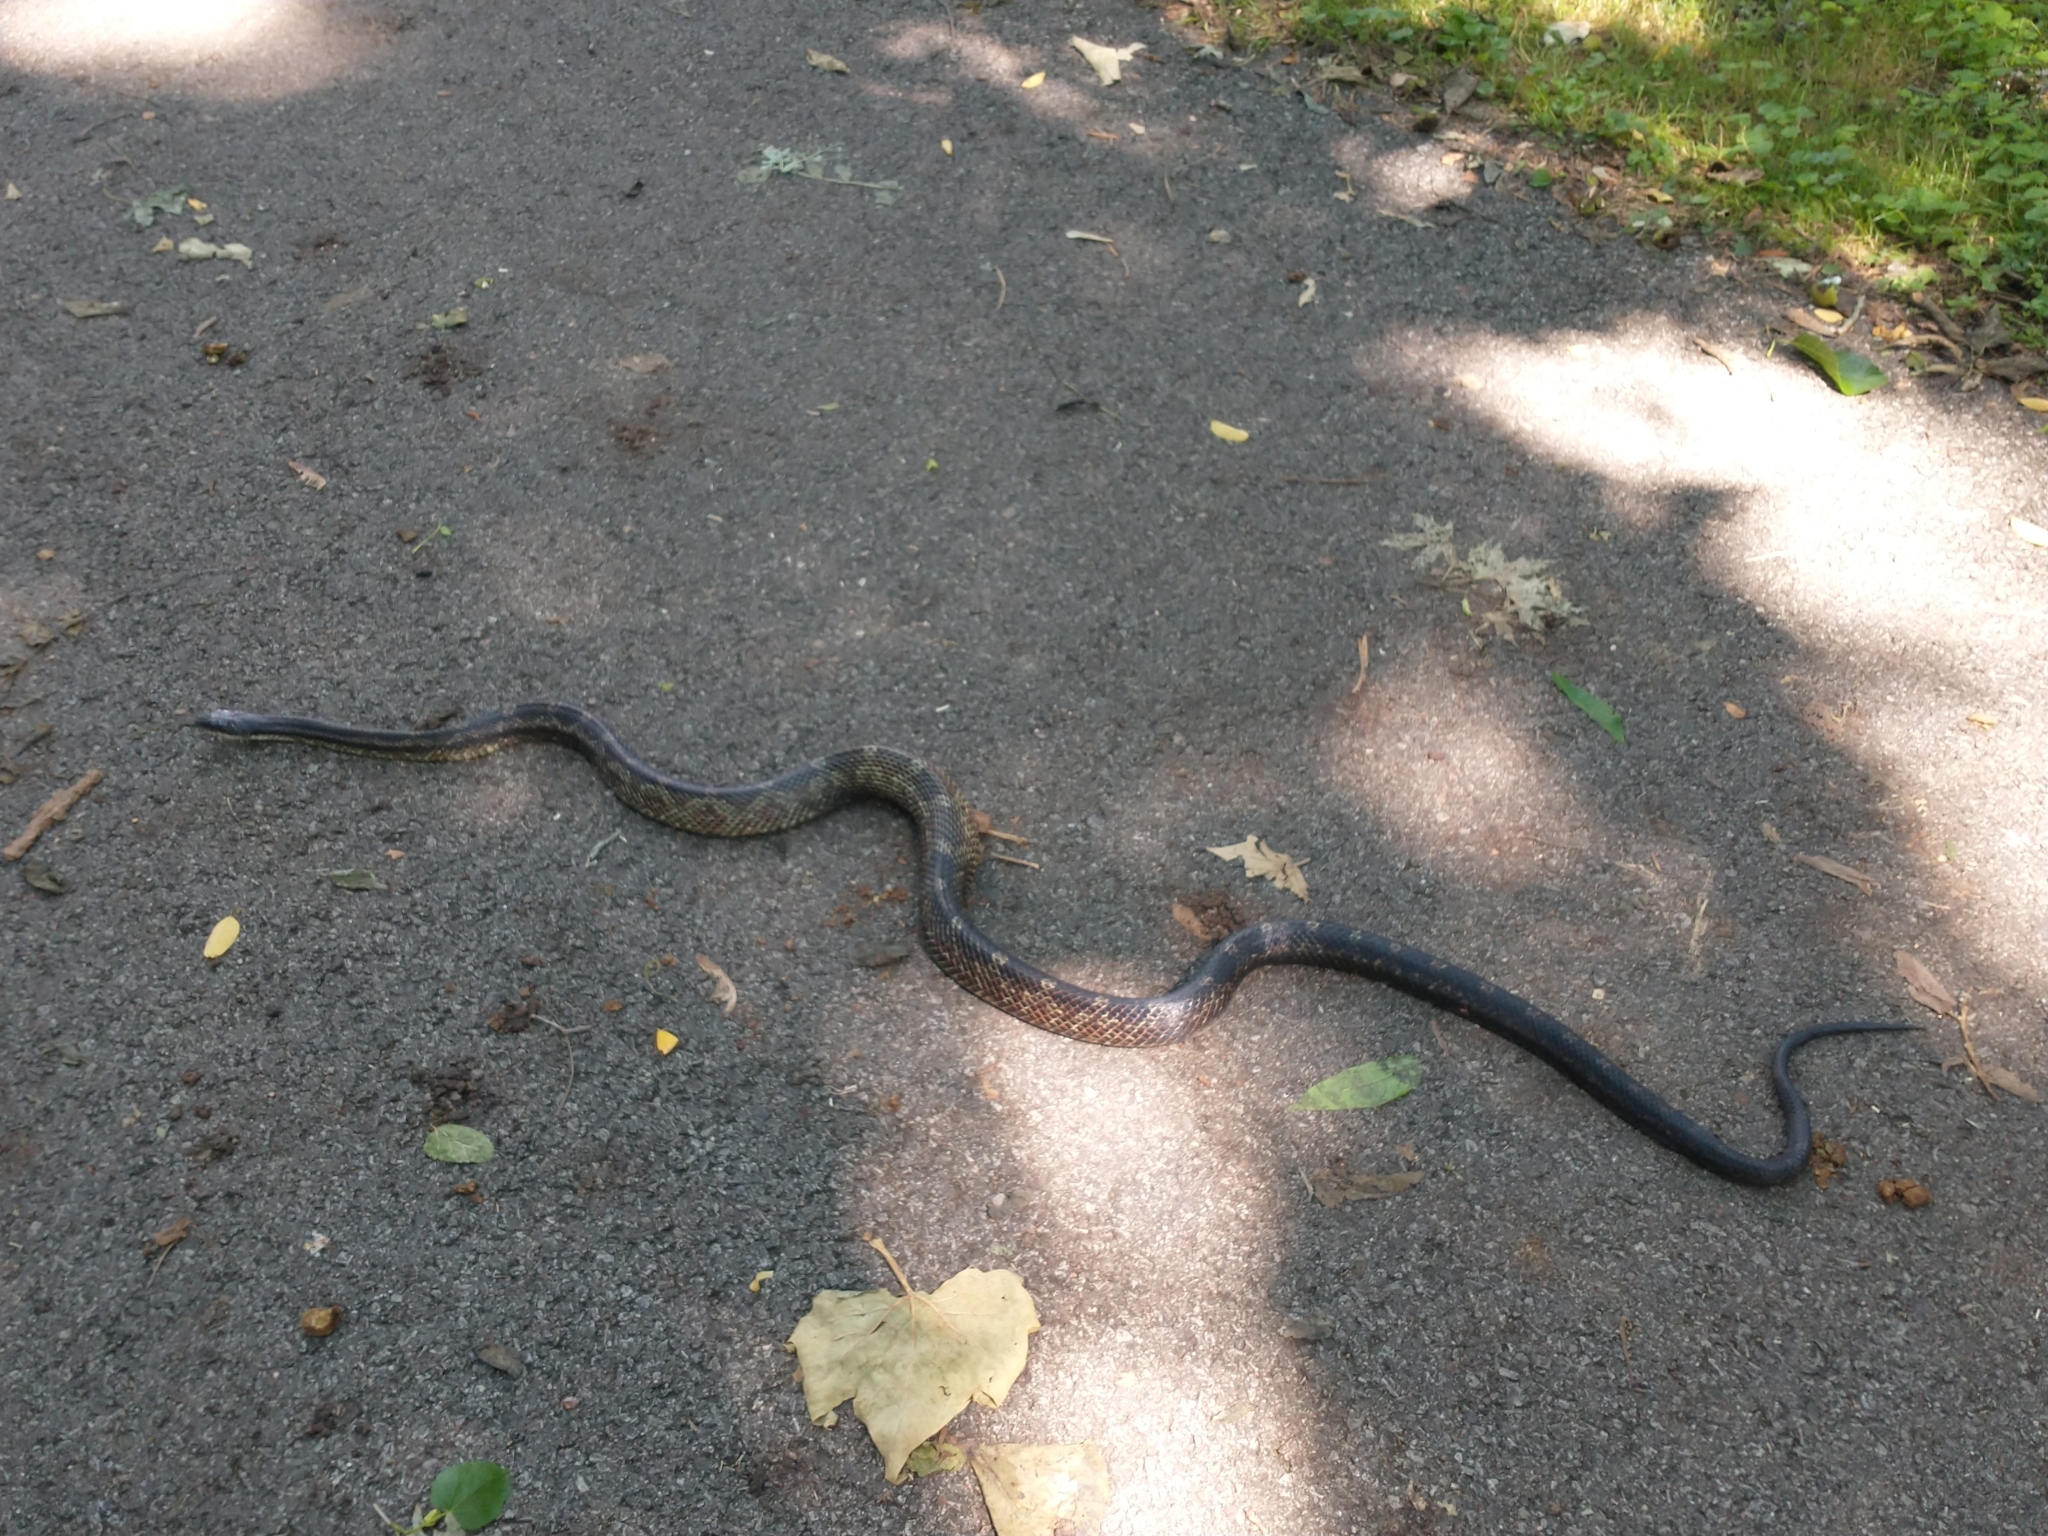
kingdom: Animalia
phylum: Chordata
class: Squamata
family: Colubridae
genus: Pantherophis
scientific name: Pantherophis spiloides
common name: Gray rat snake
